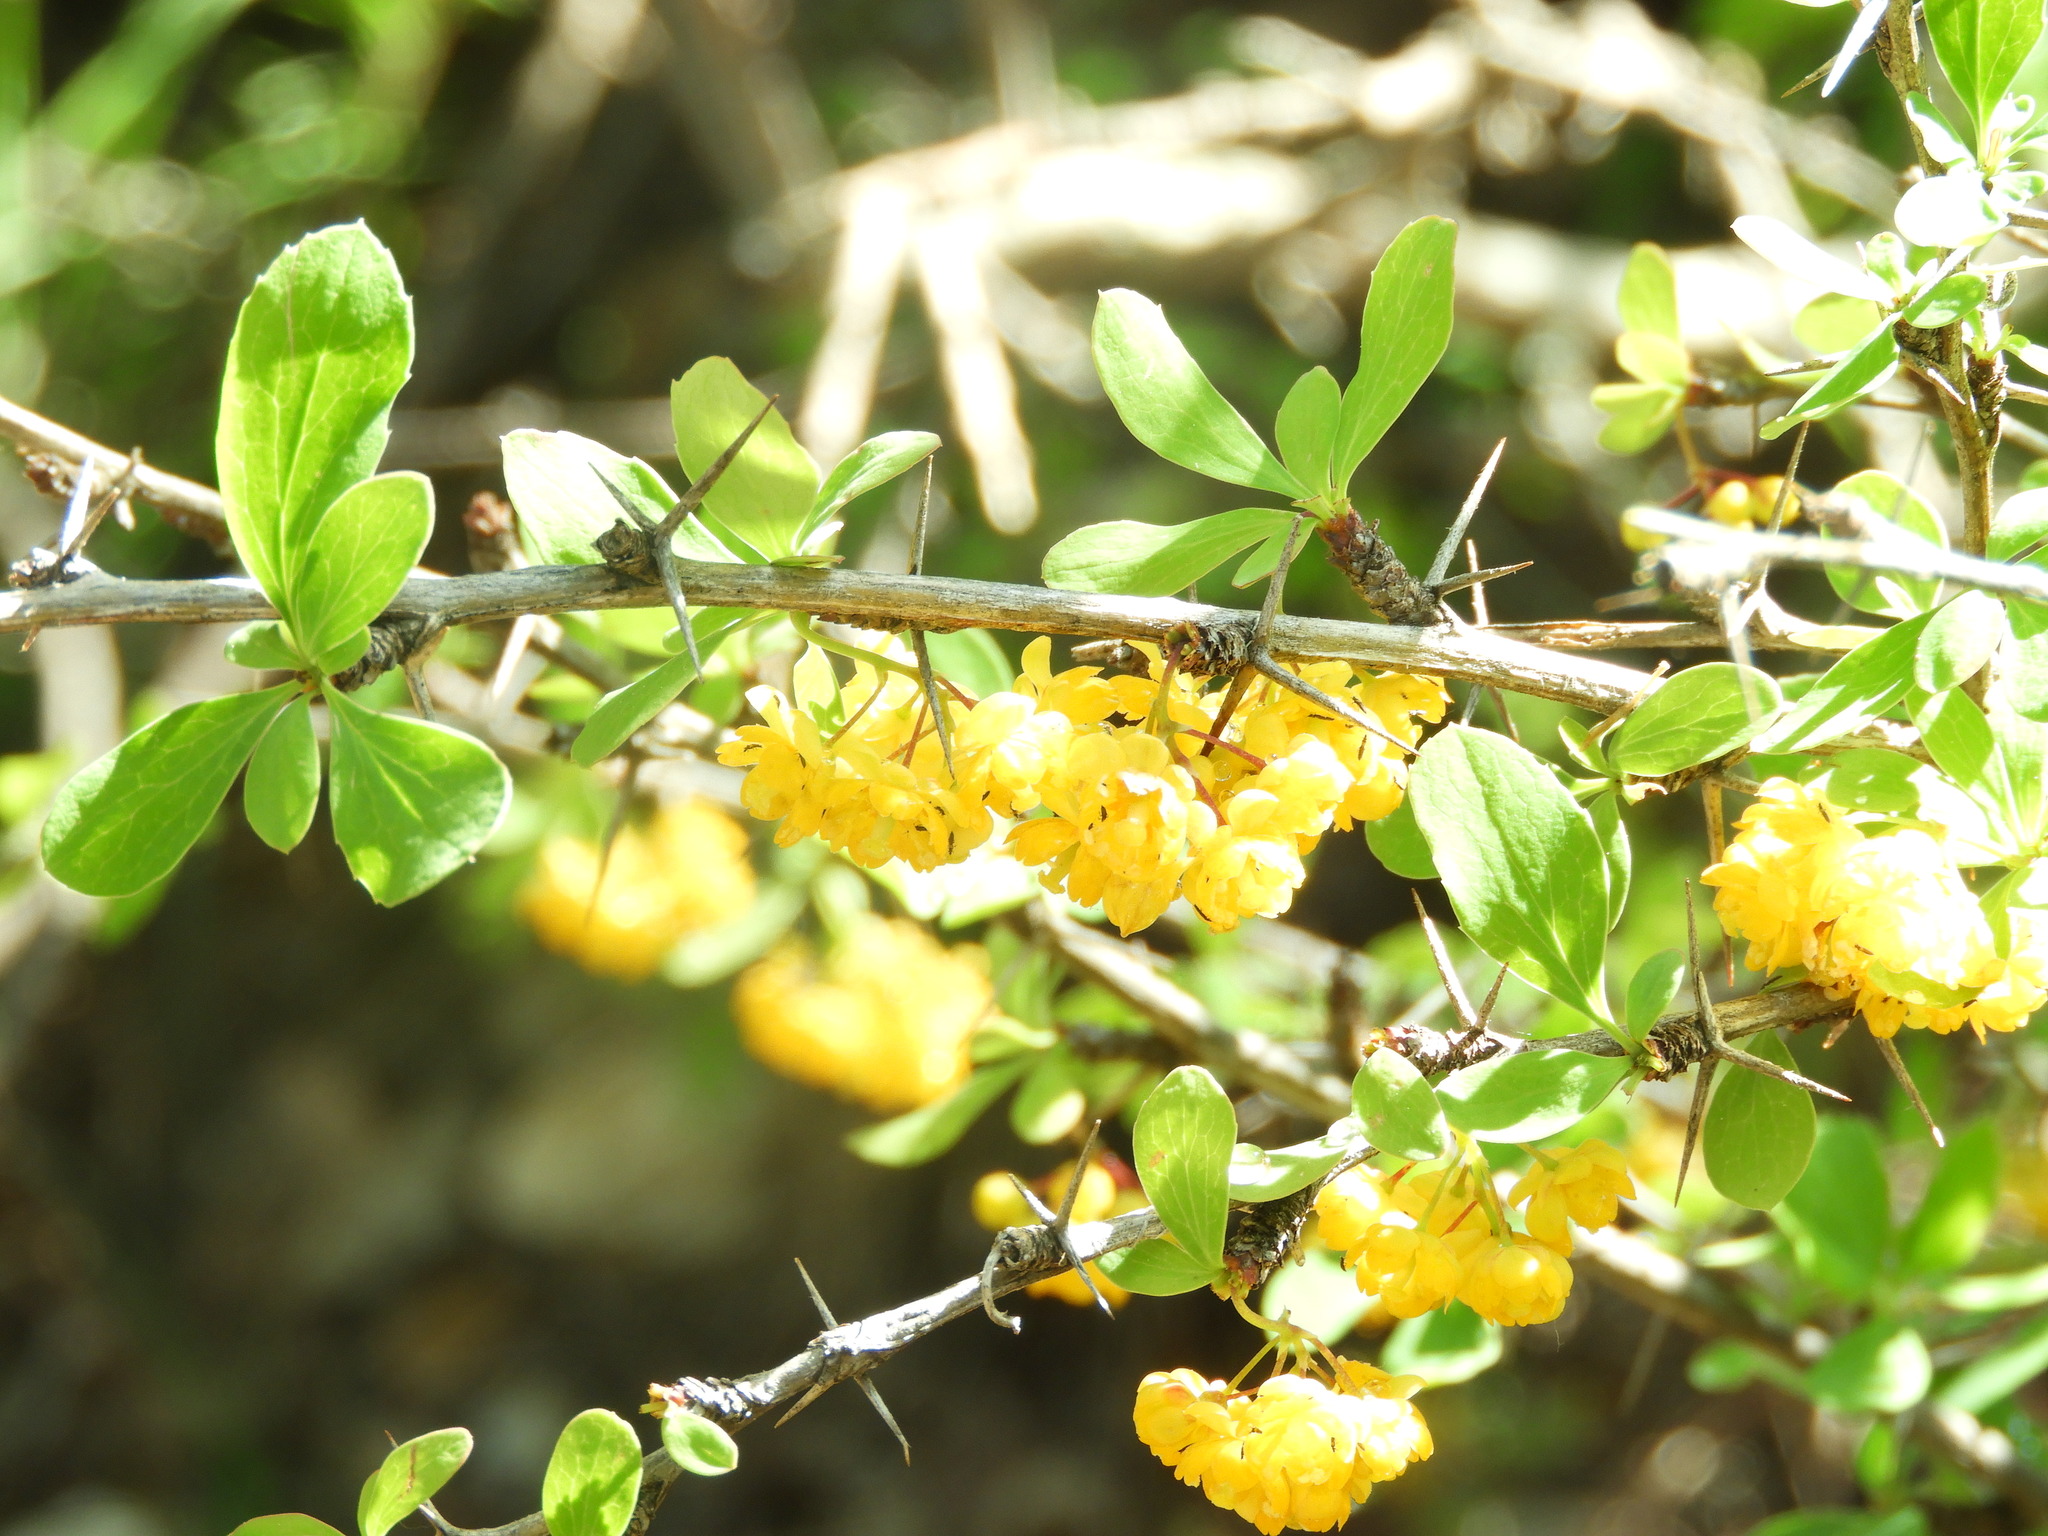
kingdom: Plantae
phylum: Tracheophyta
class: Magnoliopsida
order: Ranunculales
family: Berberidaceae
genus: Berberis
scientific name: Berberis hispanica
